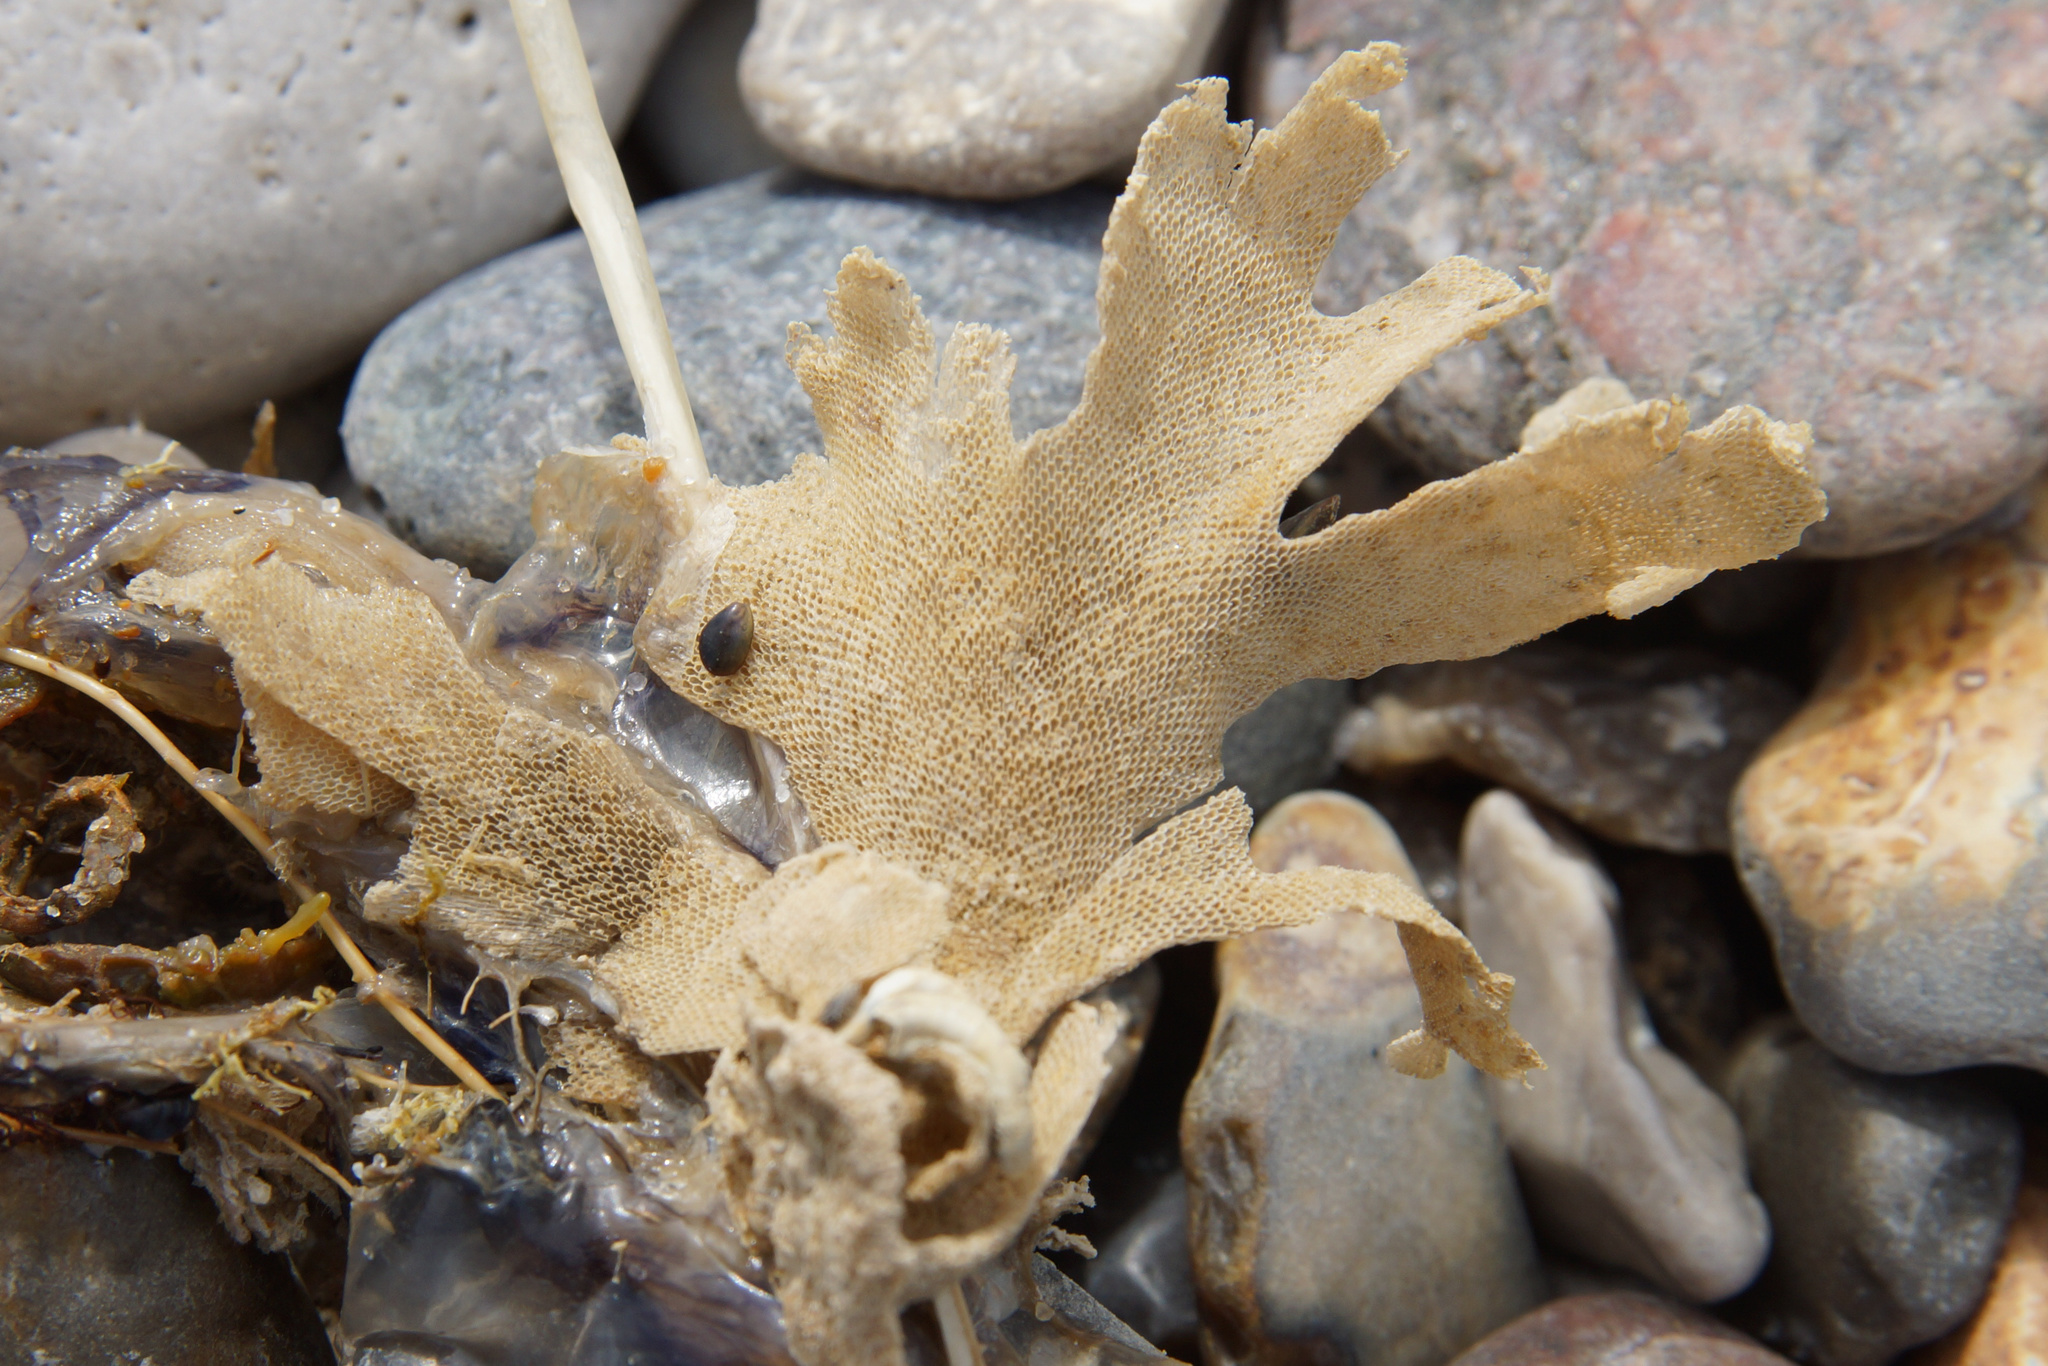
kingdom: Animalia
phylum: Bryozoa
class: Gymnolaemata
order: Cheilostomatida
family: Flustridae
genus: Flustra
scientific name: Flustra foliacea
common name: Hornwrack
